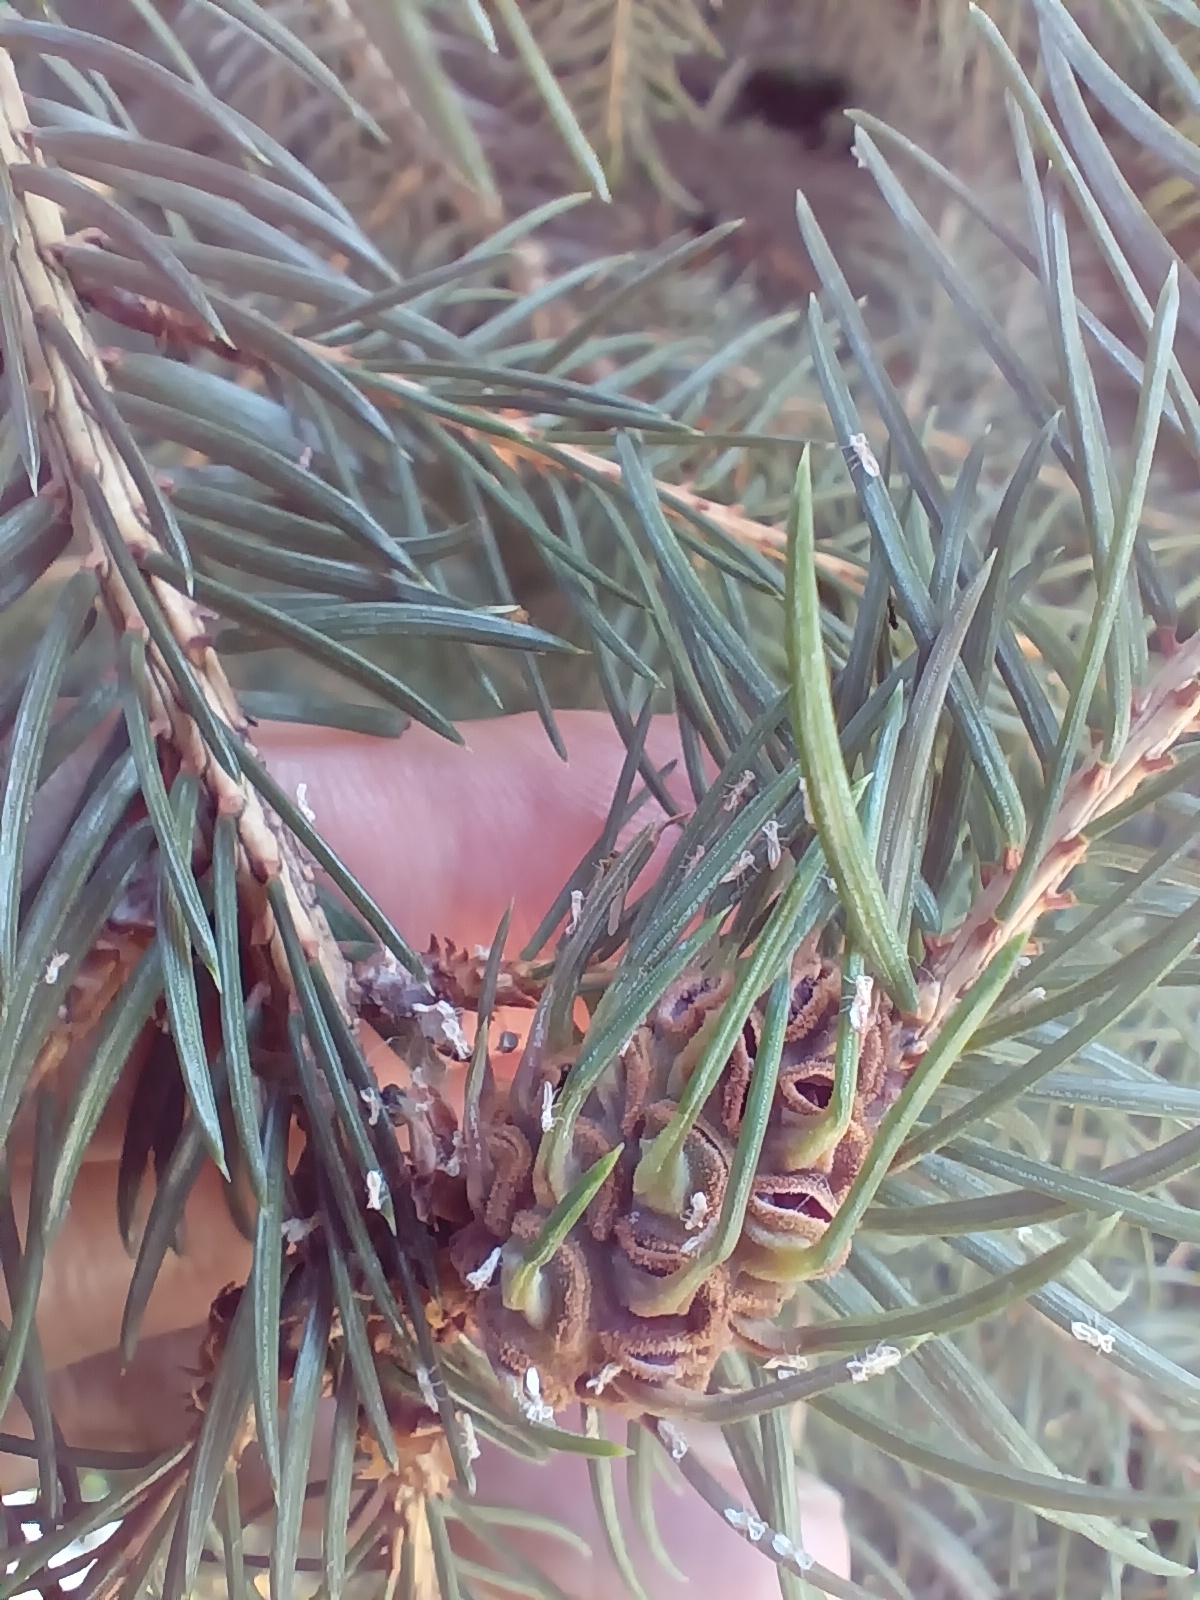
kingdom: Animalia
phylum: Arthropoda
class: Insecta
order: Hemiptera
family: Adelgidae
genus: Adelges
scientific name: Adelges abietis
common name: Eastern spruce gall adelgid
